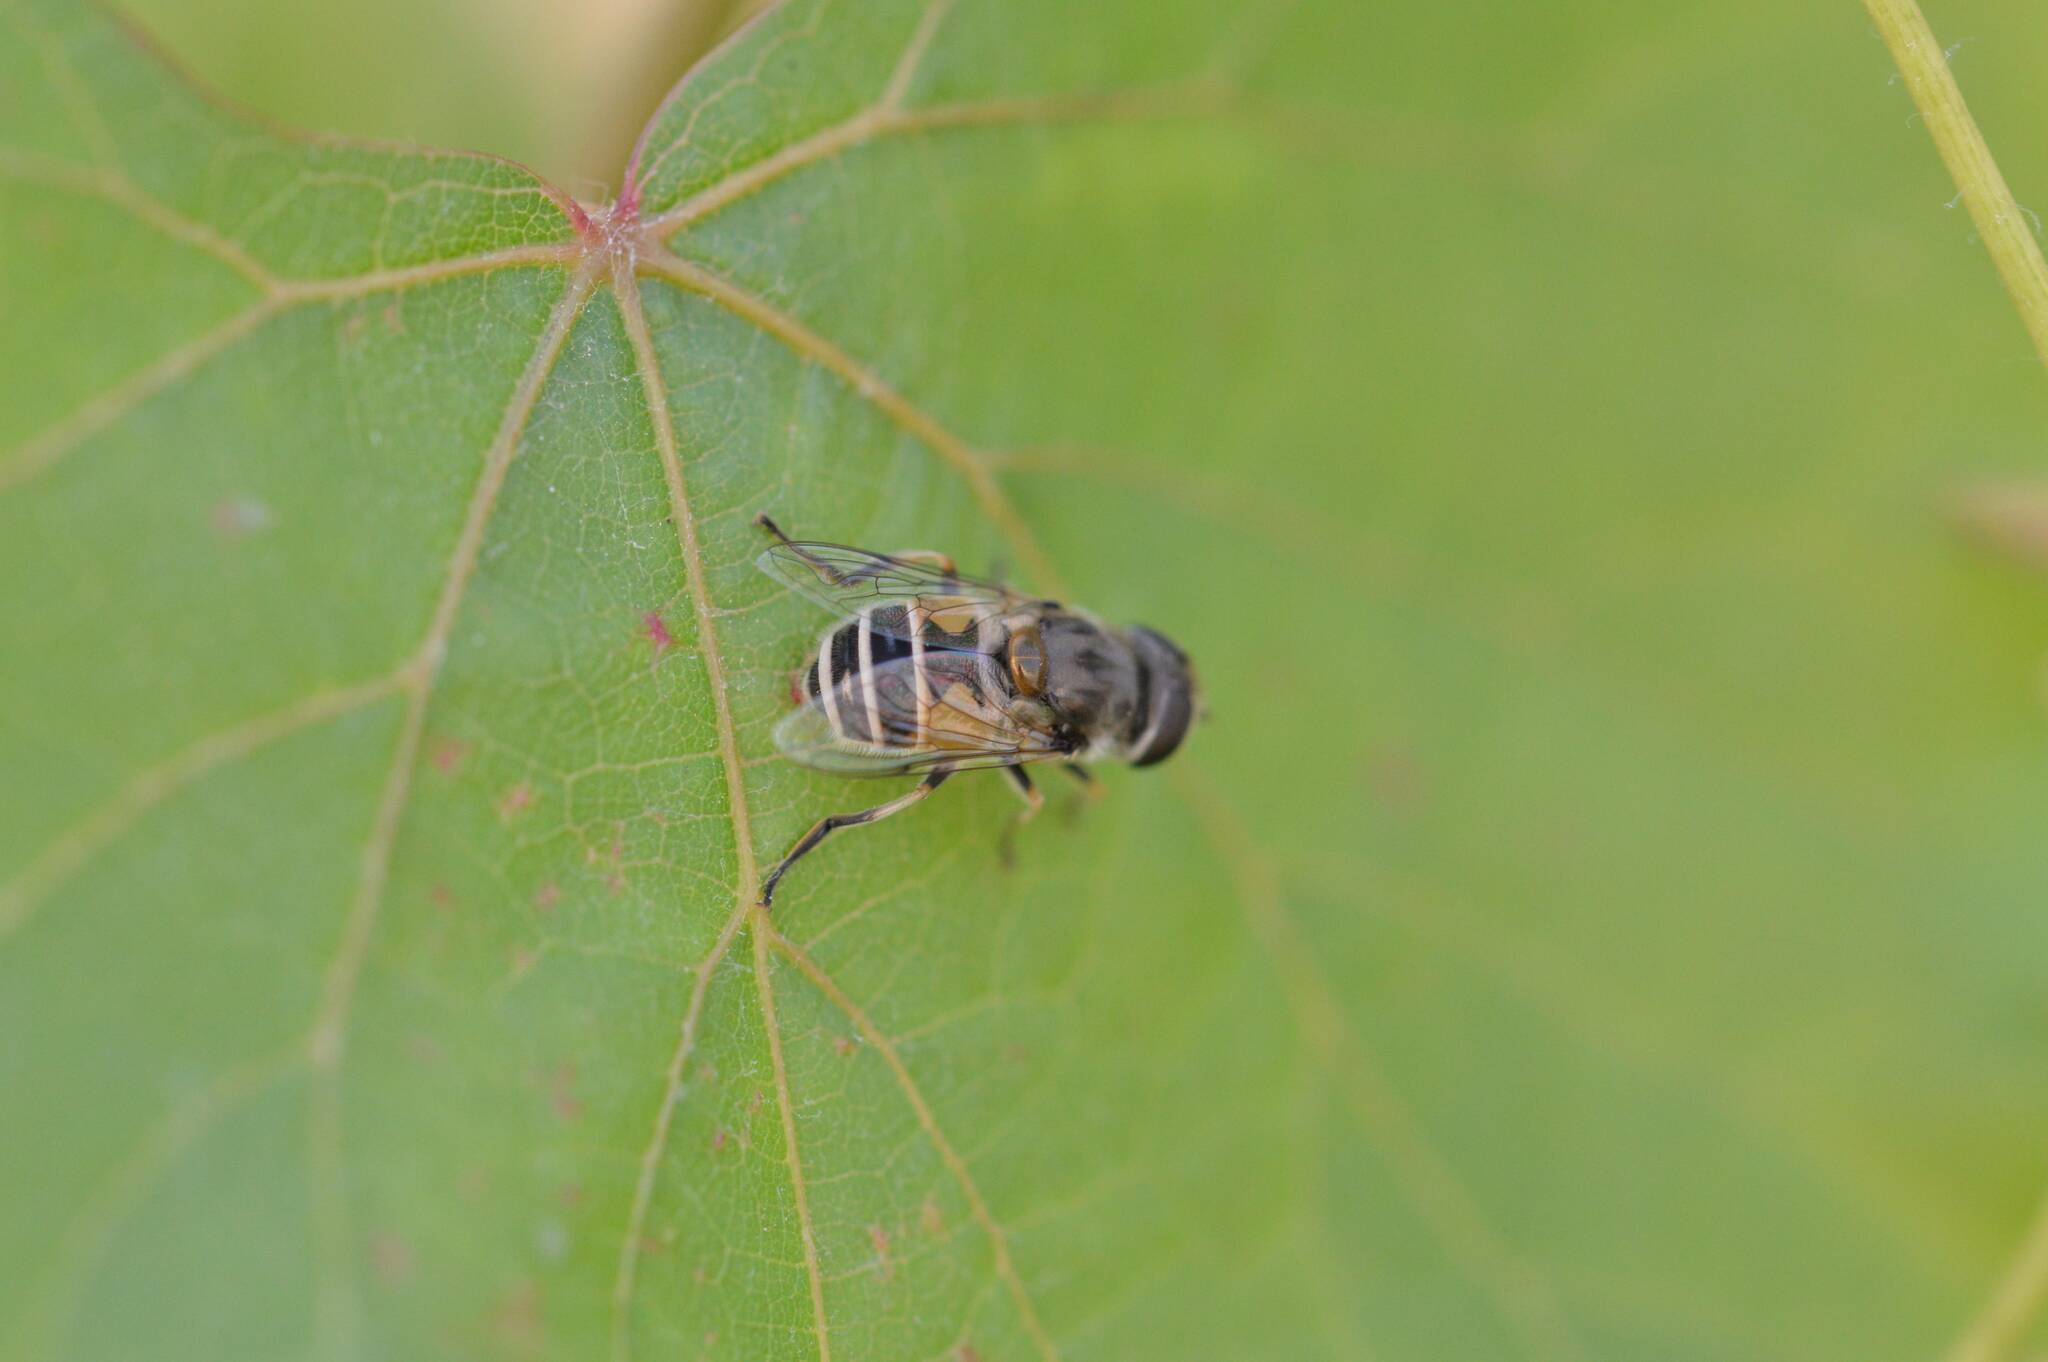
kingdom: Animalia
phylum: Arthropoda
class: Insecta
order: Diptera
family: Syrphidae
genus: Eristalis
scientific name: Eristalis arbustorum
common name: Hover fly
